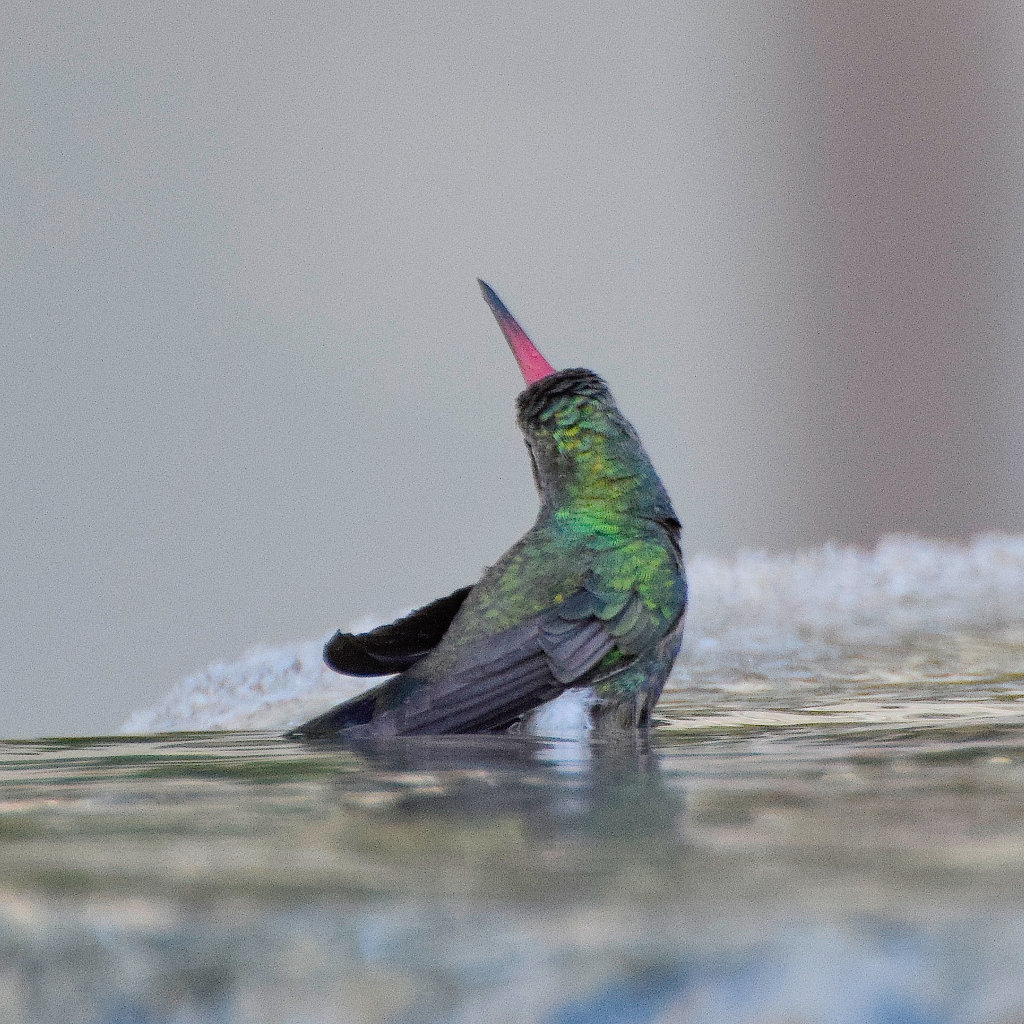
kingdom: Animalia
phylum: Chordata
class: Aves
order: Apodiformes
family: Trochilidae
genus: Cynanthus
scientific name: Cynanthus latirostris
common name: Broad-billed hummingbird
